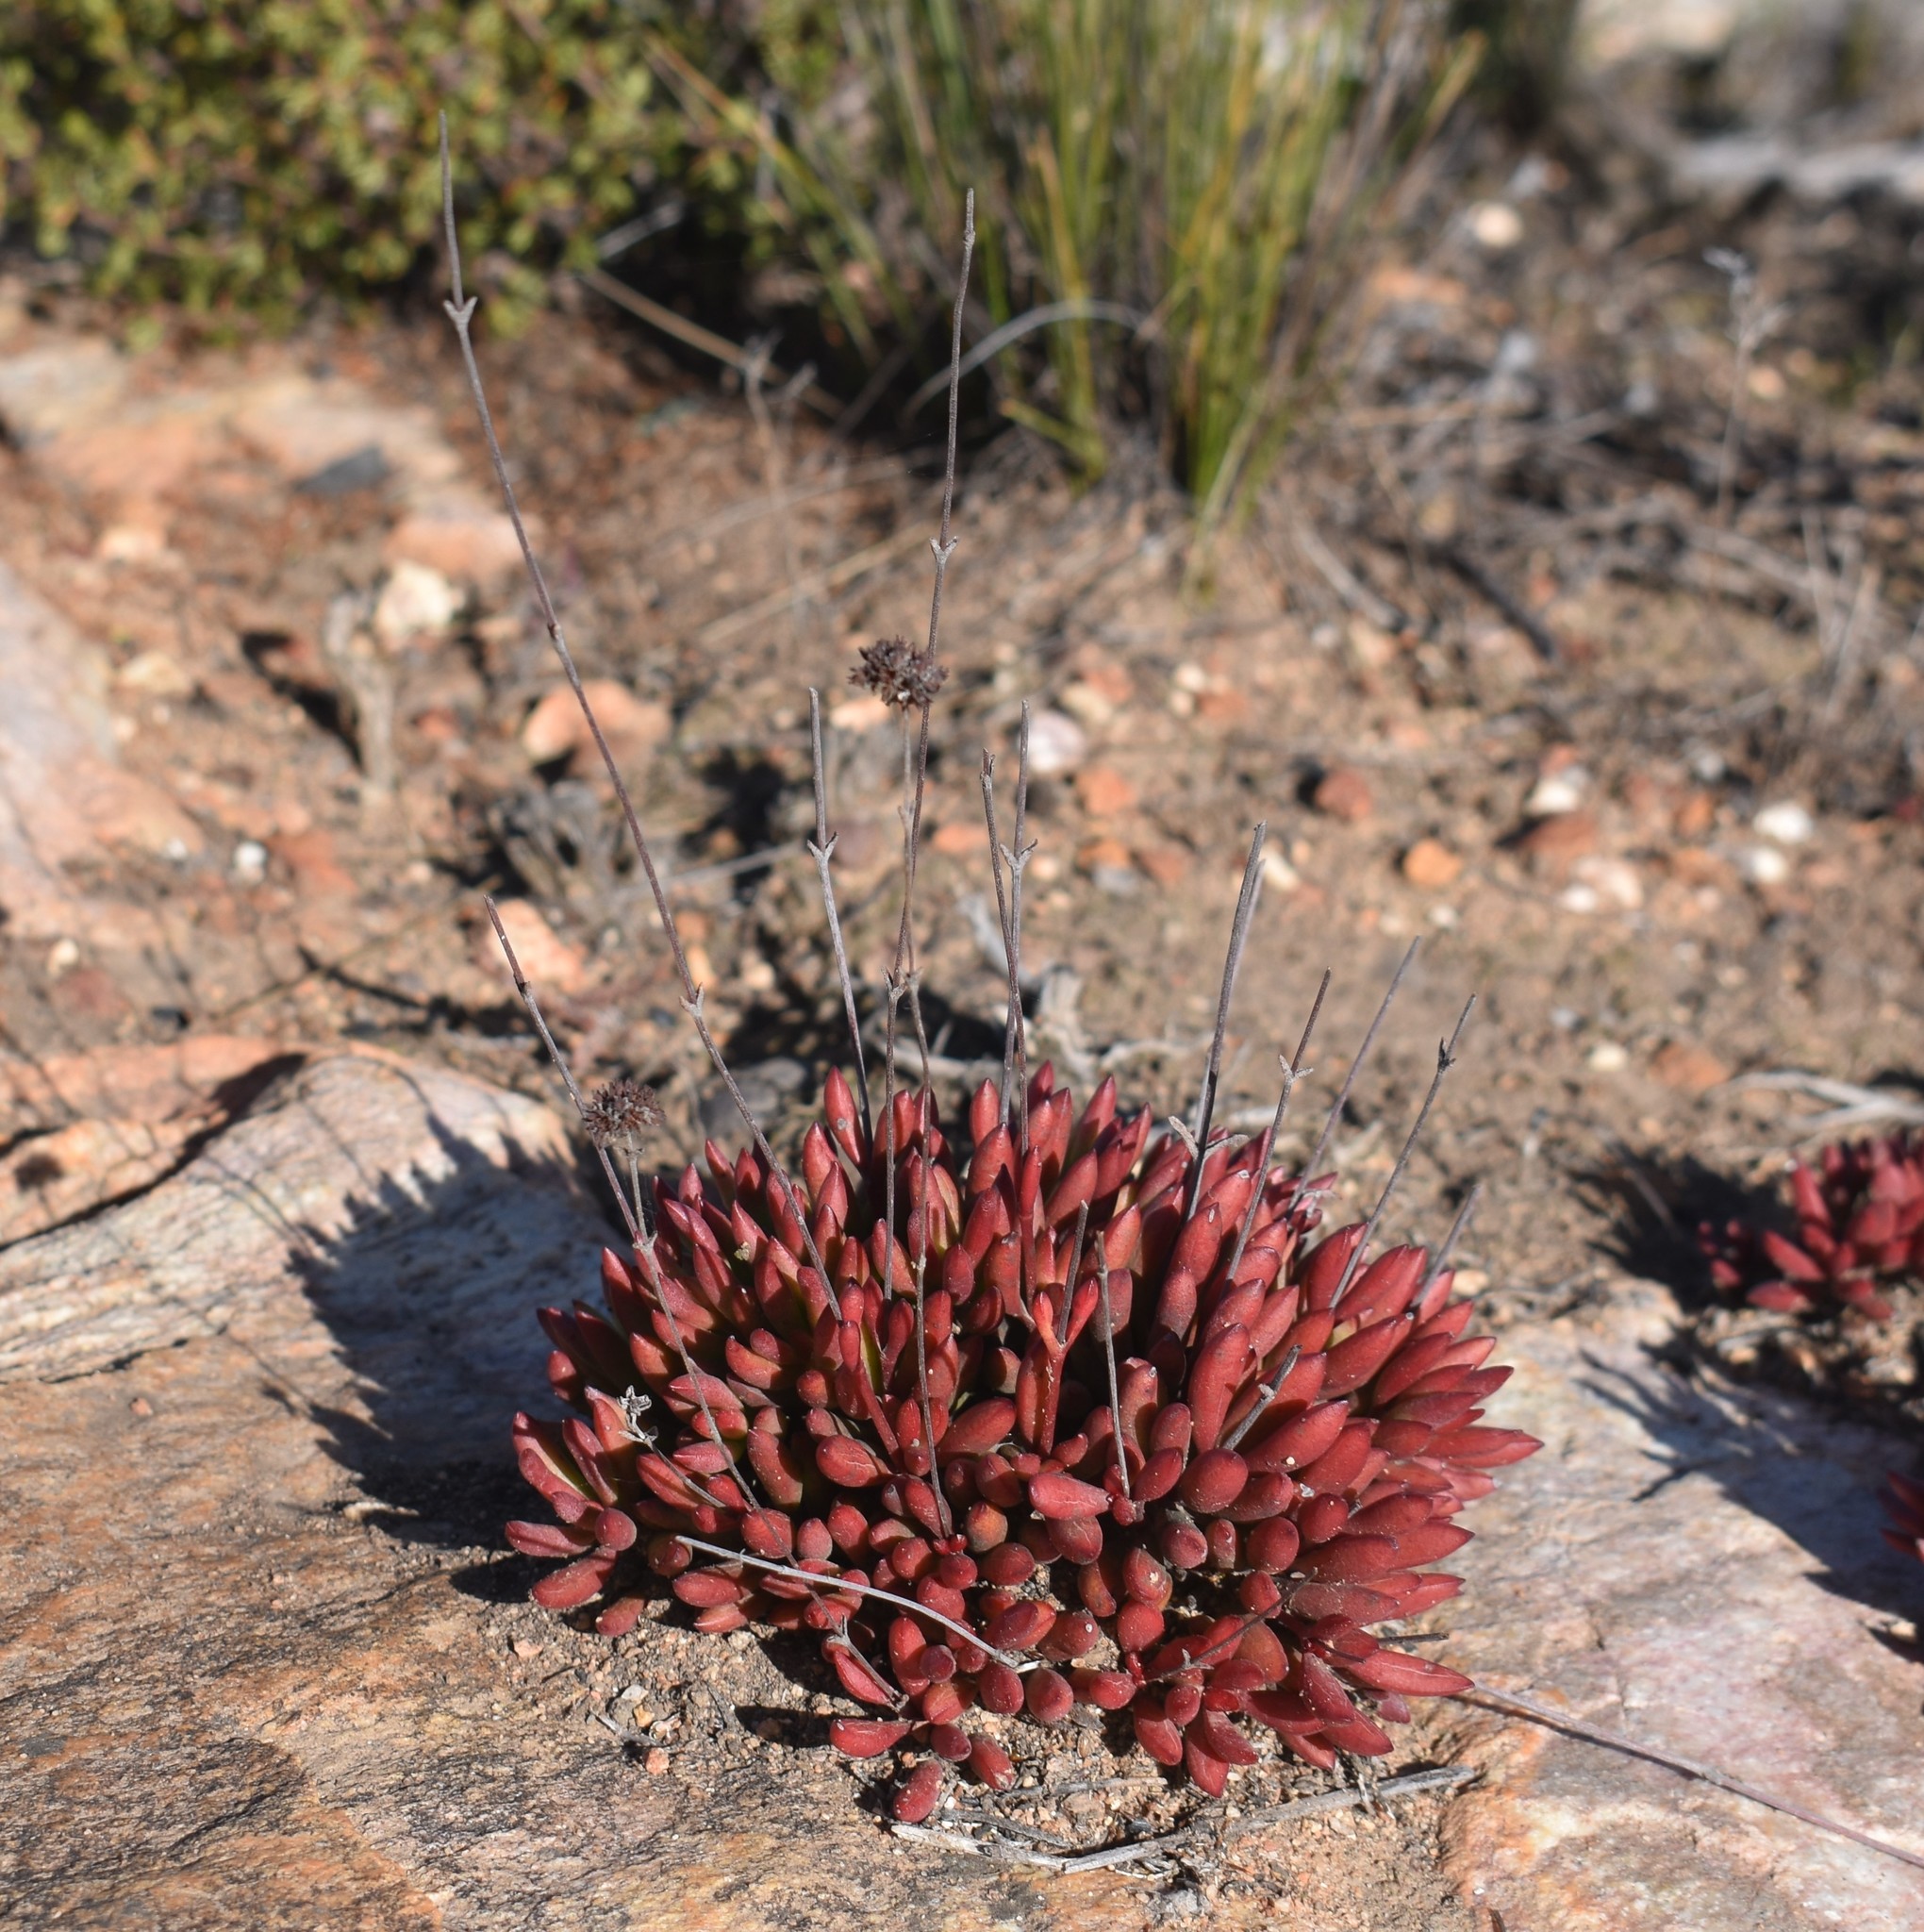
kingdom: Plantae
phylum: Tracheophyta
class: Magnoliopsida
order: Saxifragales
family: Crassulaceae
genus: Crassula
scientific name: Crassula atropurpurea
